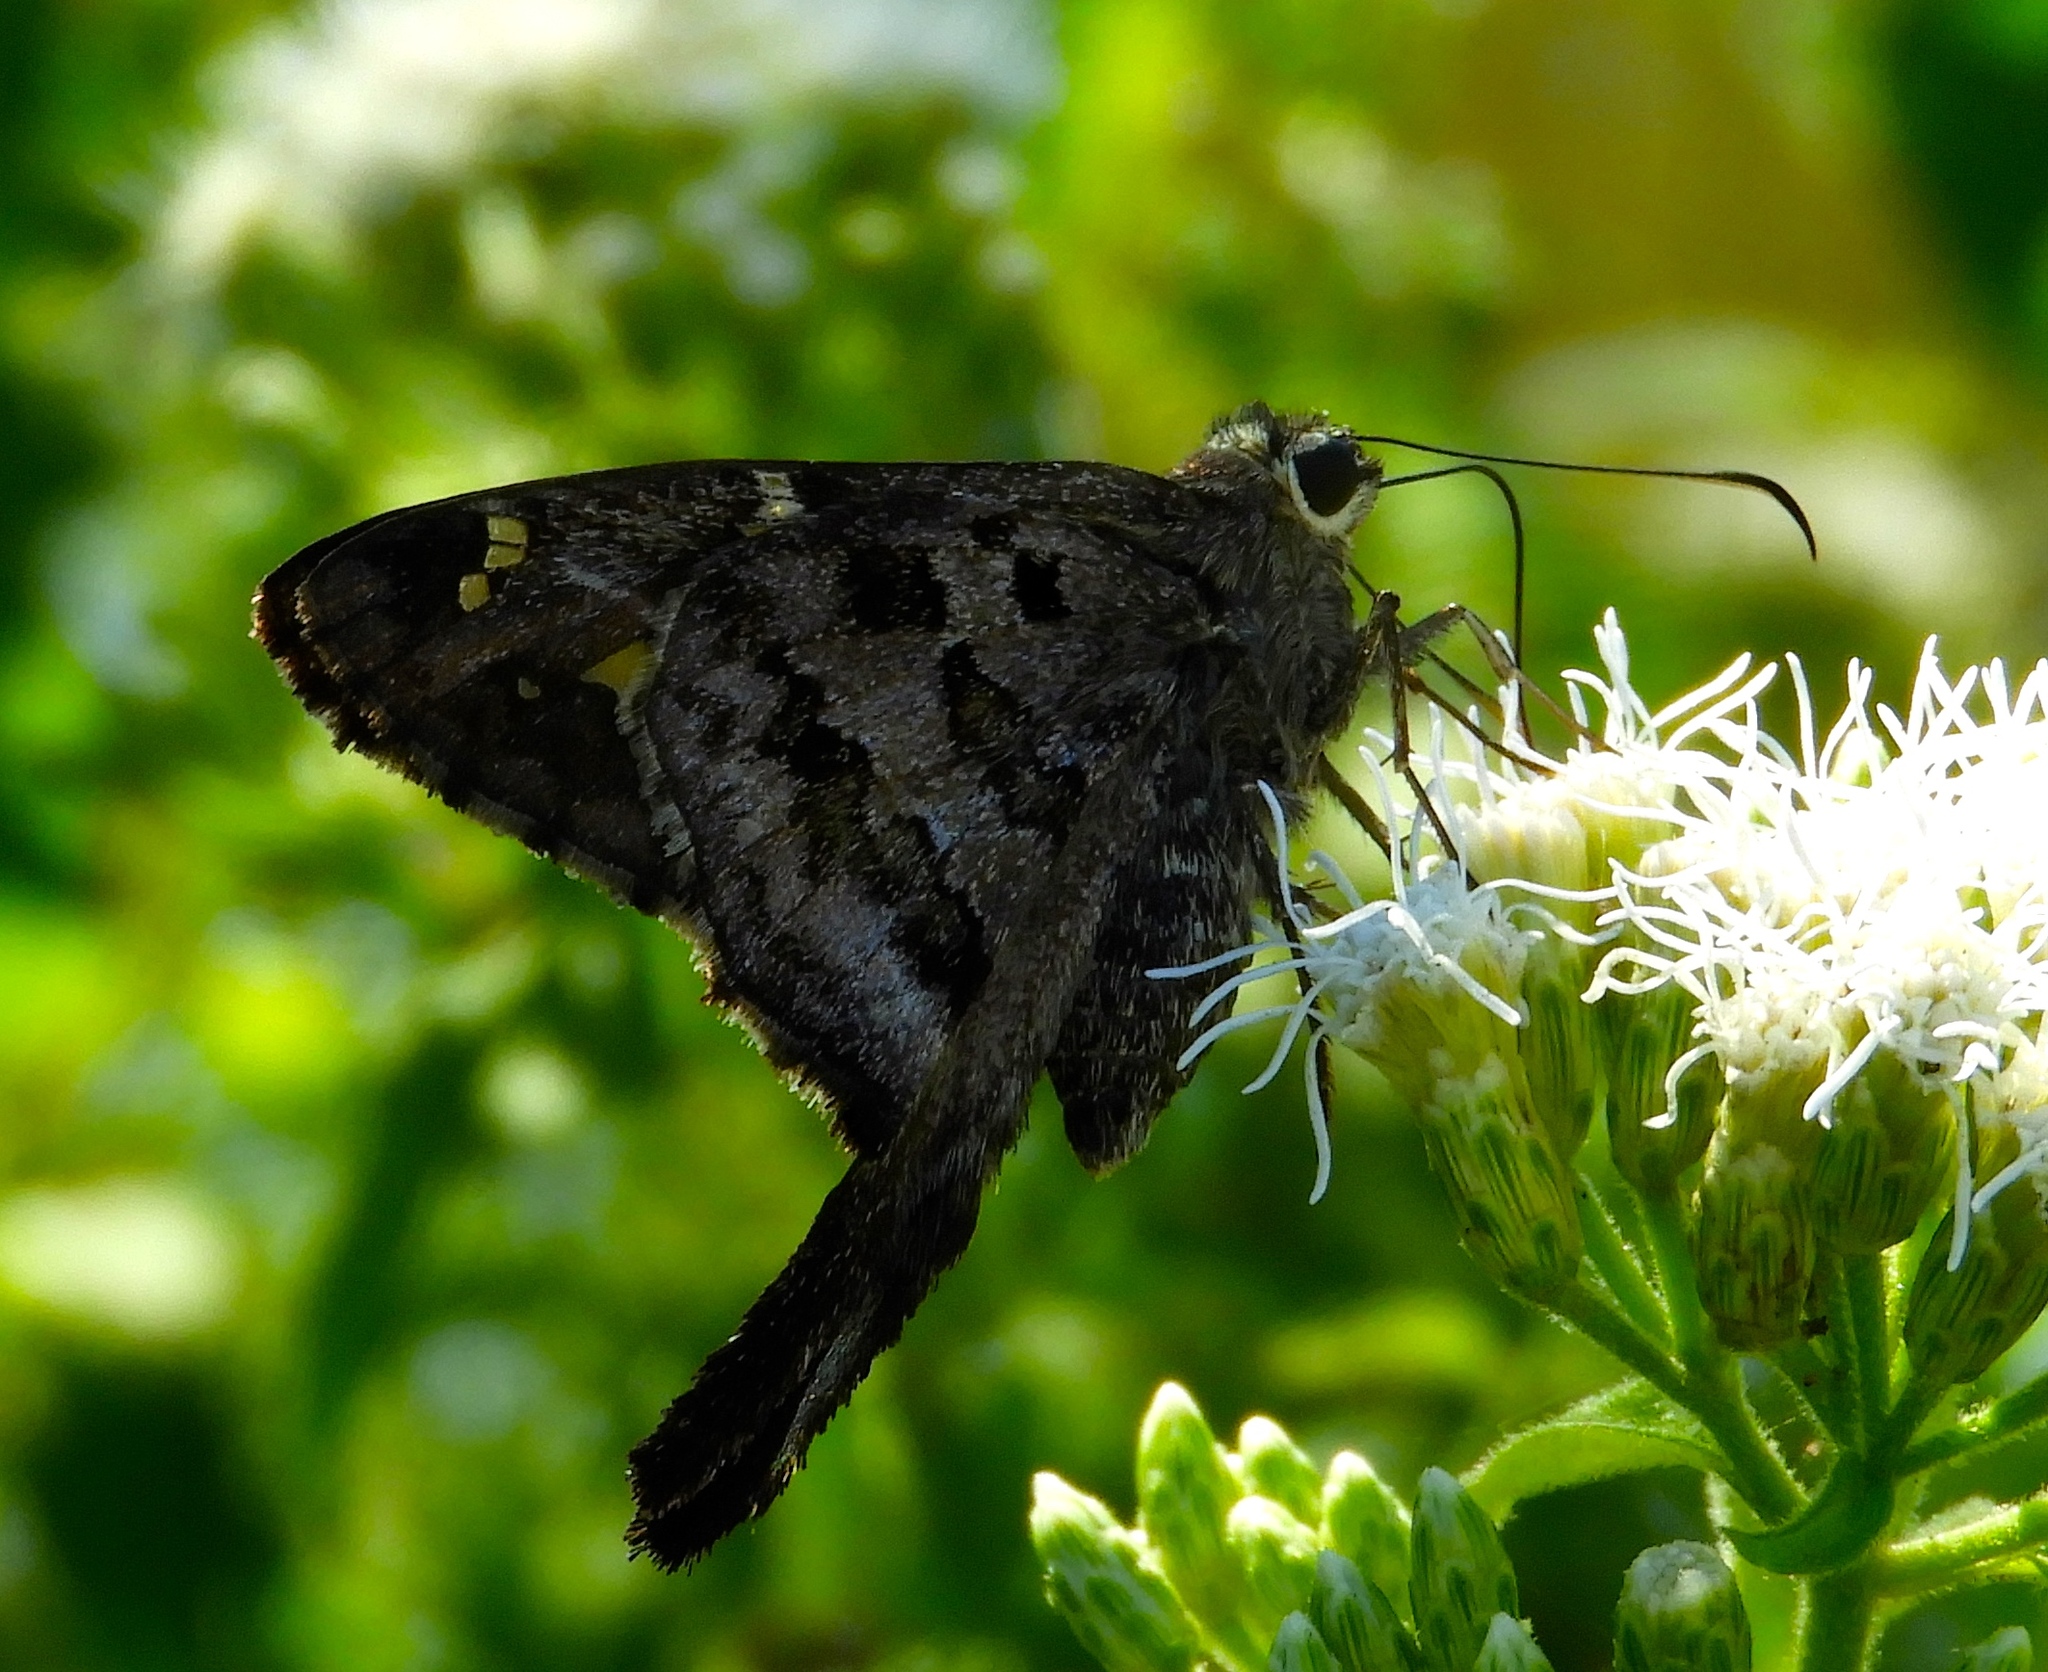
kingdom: Animalia
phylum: Arthropoda
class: Insecta
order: Lepidoptera
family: Hesperiidae
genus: Thorybes
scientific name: Thorybes
